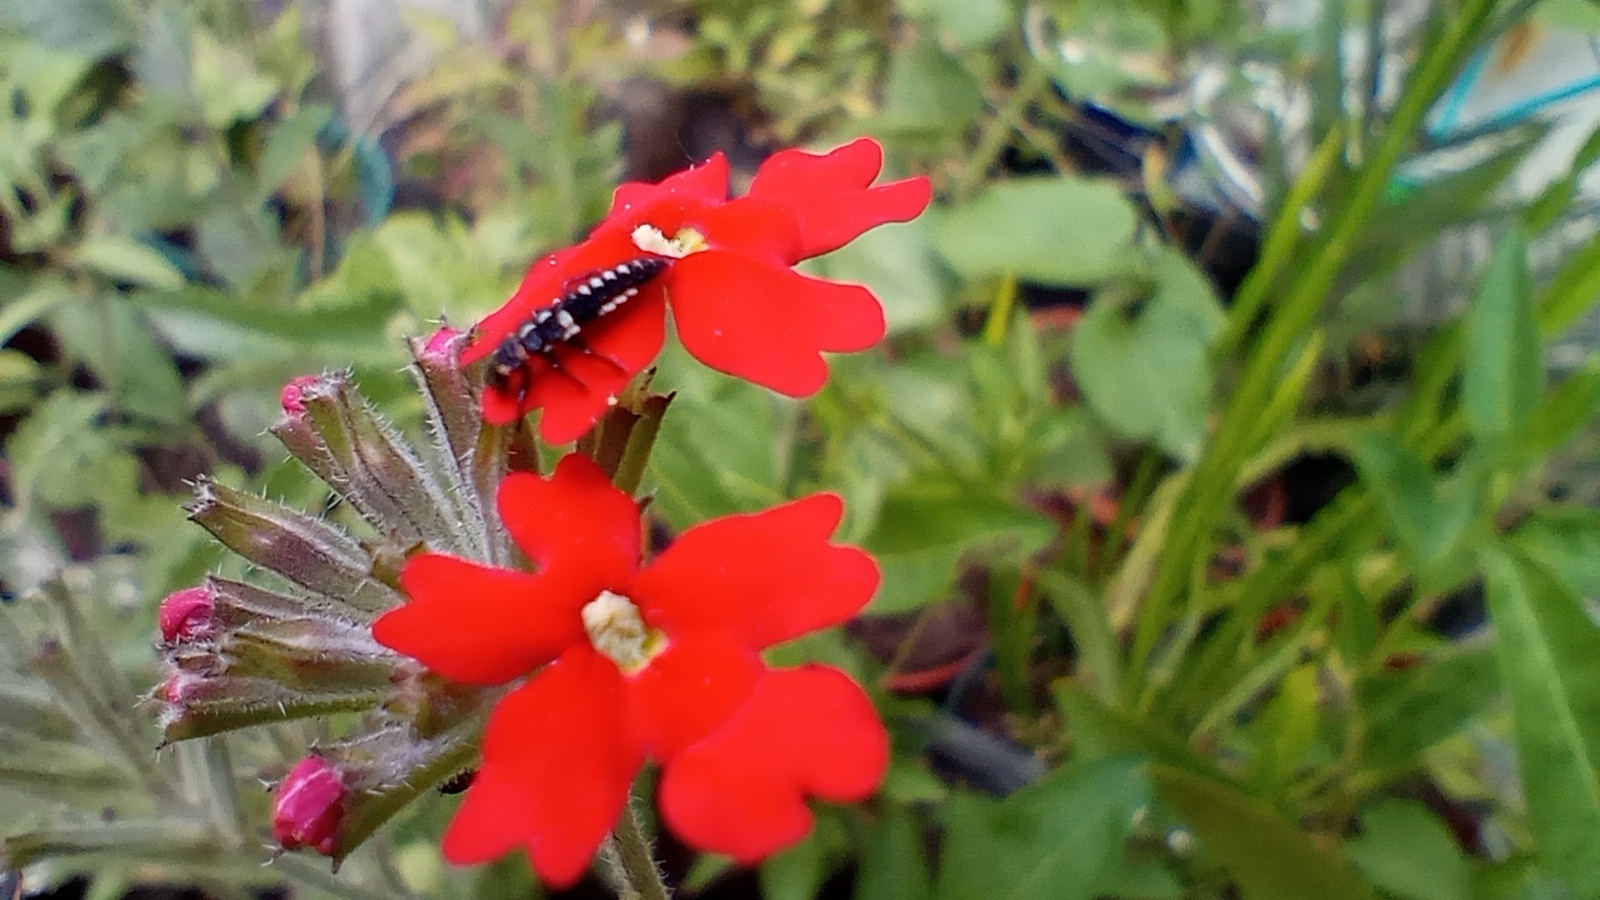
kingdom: Animalia
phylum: Arthropoda
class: Insecta
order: Coleoptera
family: Coccinellidae
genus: Eriopis
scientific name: Eriopis connexa
